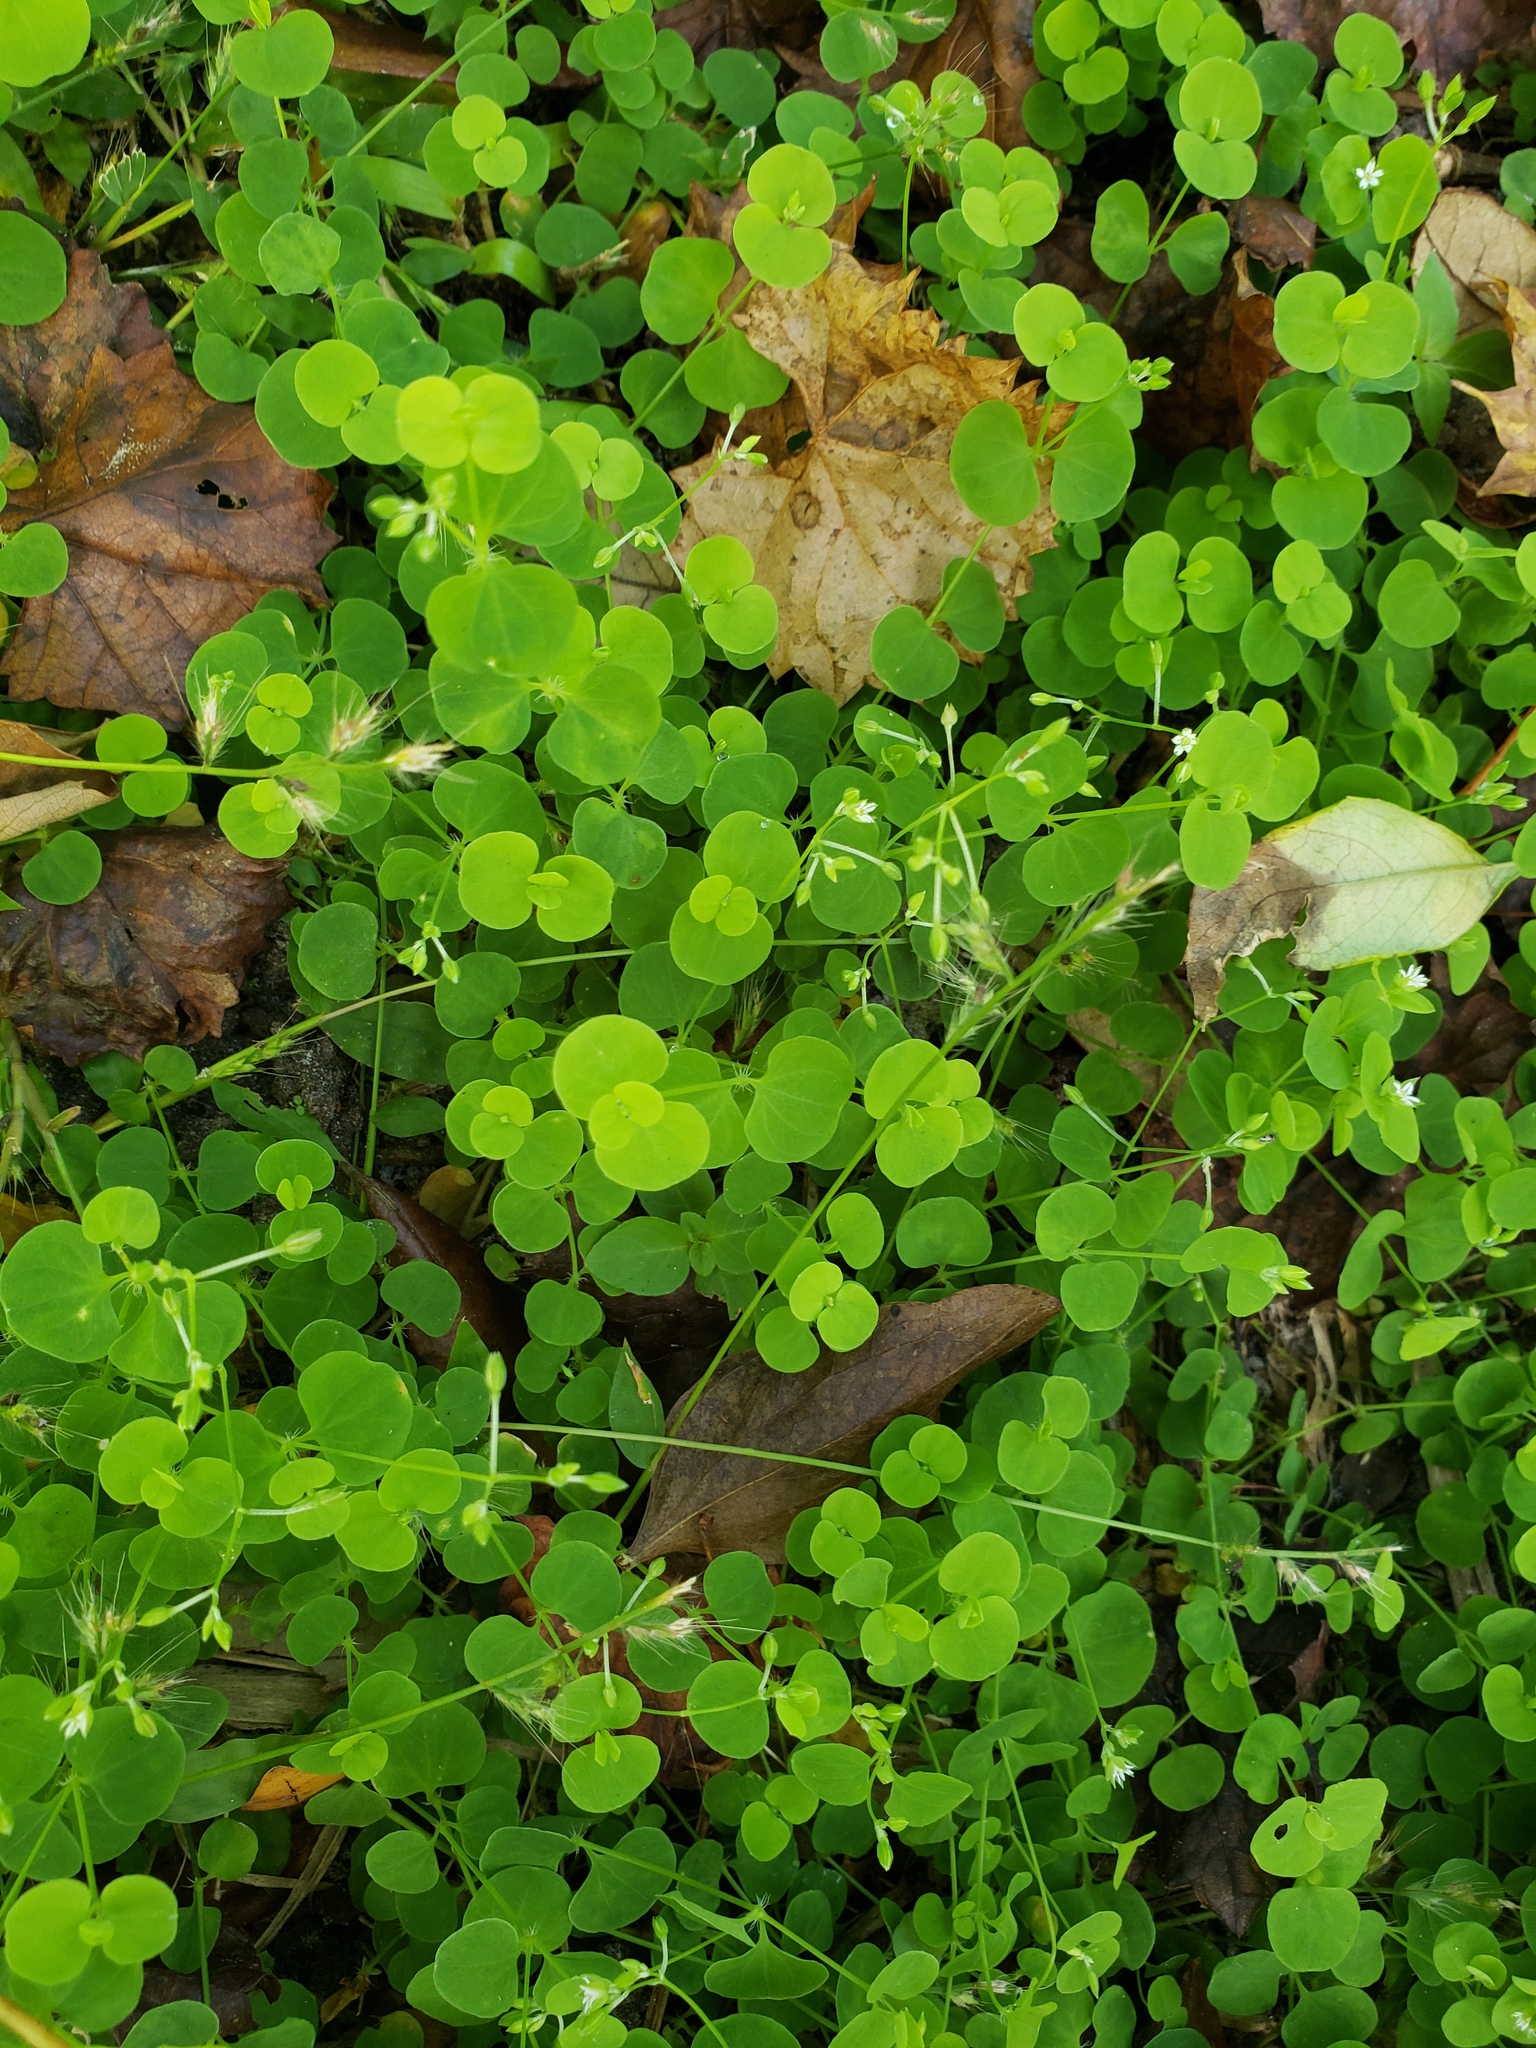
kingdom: Plantae
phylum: Tracheophyta
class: Magnoliopsida
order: Caryophyllales
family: Caryophyllaceae
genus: Drymaria
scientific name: Drymaria cordata
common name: Whitesnow
